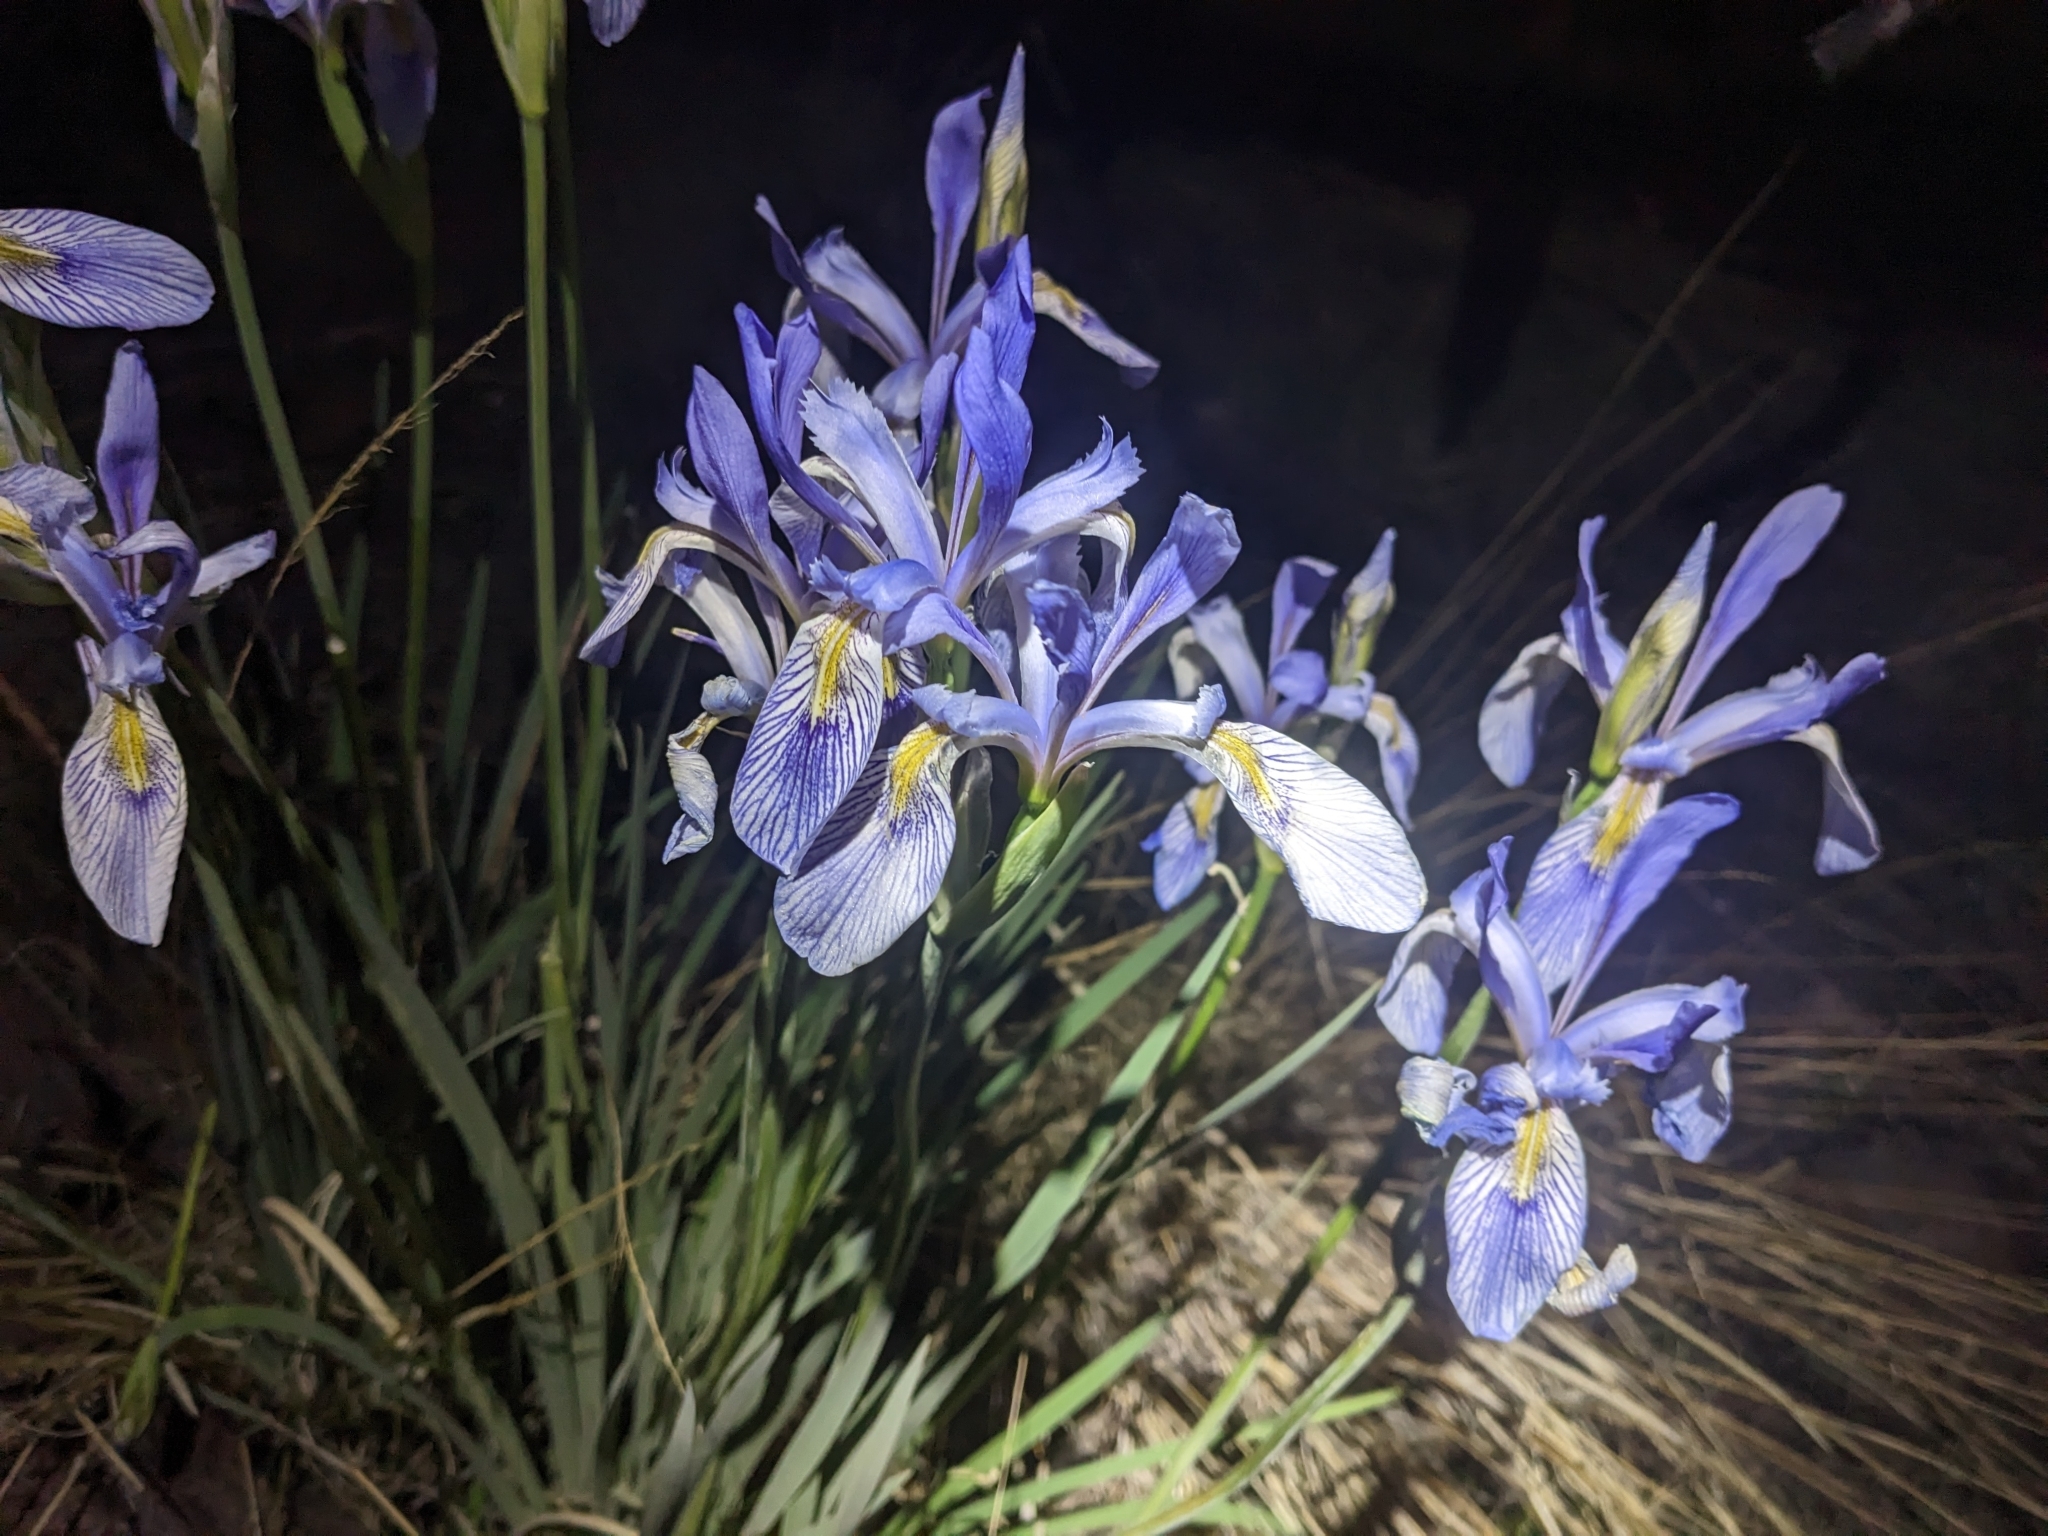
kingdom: Plantae
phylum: Tracheophyta
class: Liliopsida
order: Asparagales
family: Iridaceae
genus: Iris
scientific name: Iris missouriensis
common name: Rocky mountain iris
